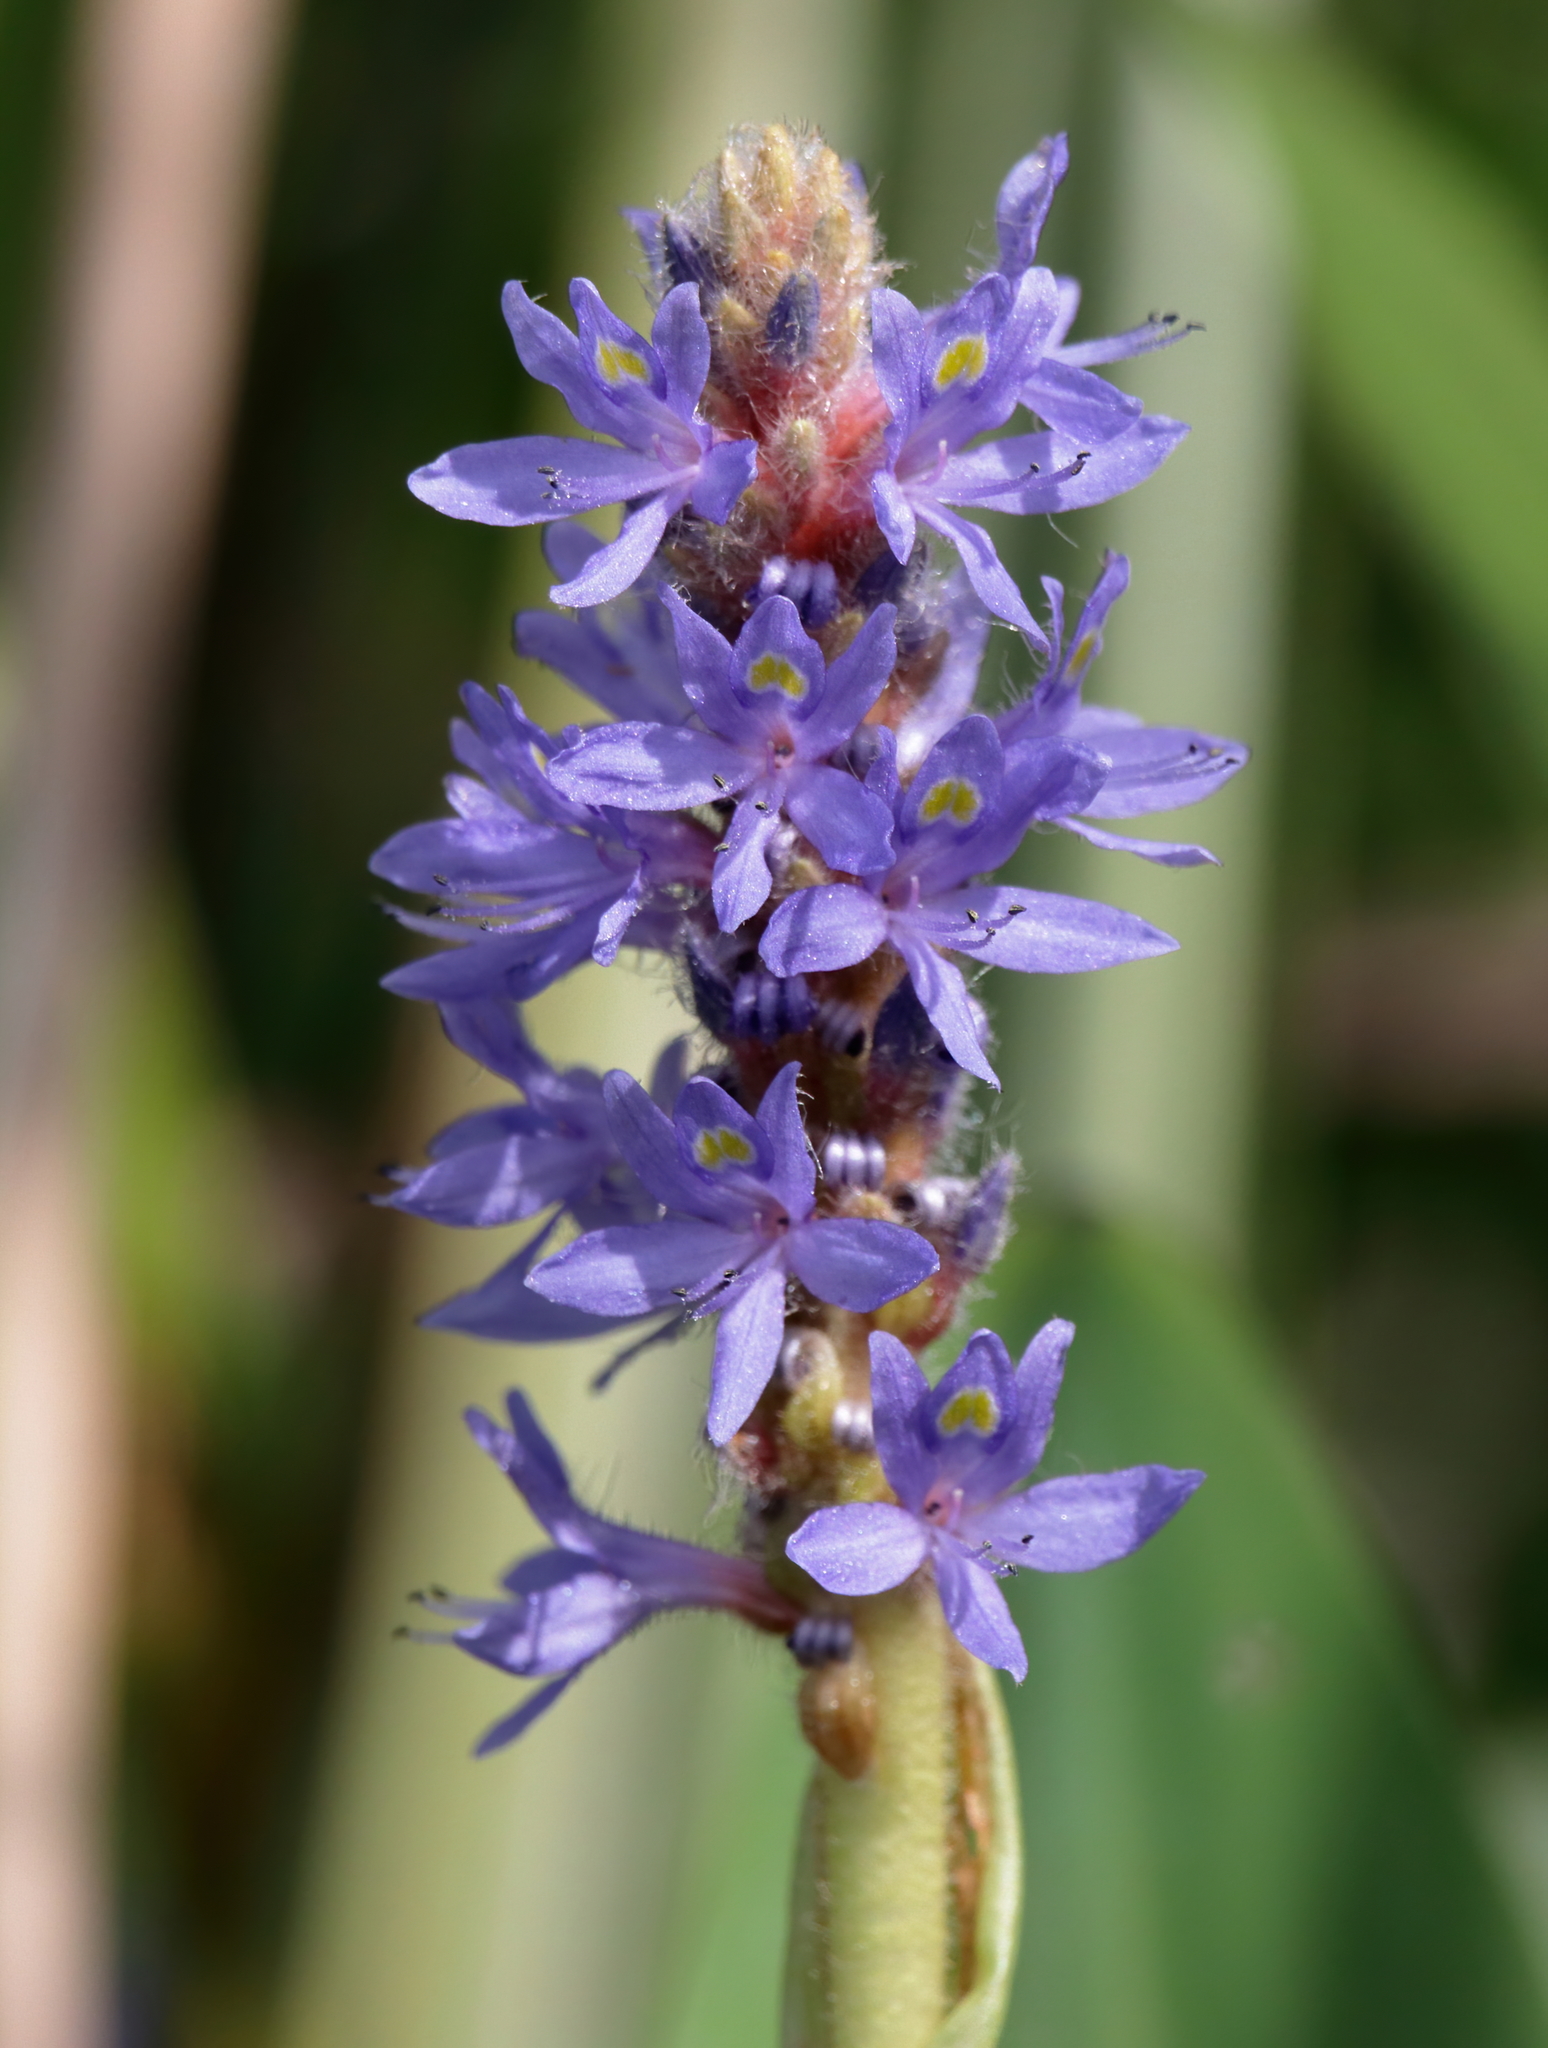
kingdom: Plantae
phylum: Tracheophyta
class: Liliopsida
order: Commelinales
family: Pontederiaceae
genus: Pontederia
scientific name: Pontederia cordata
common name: Pickerelweed
